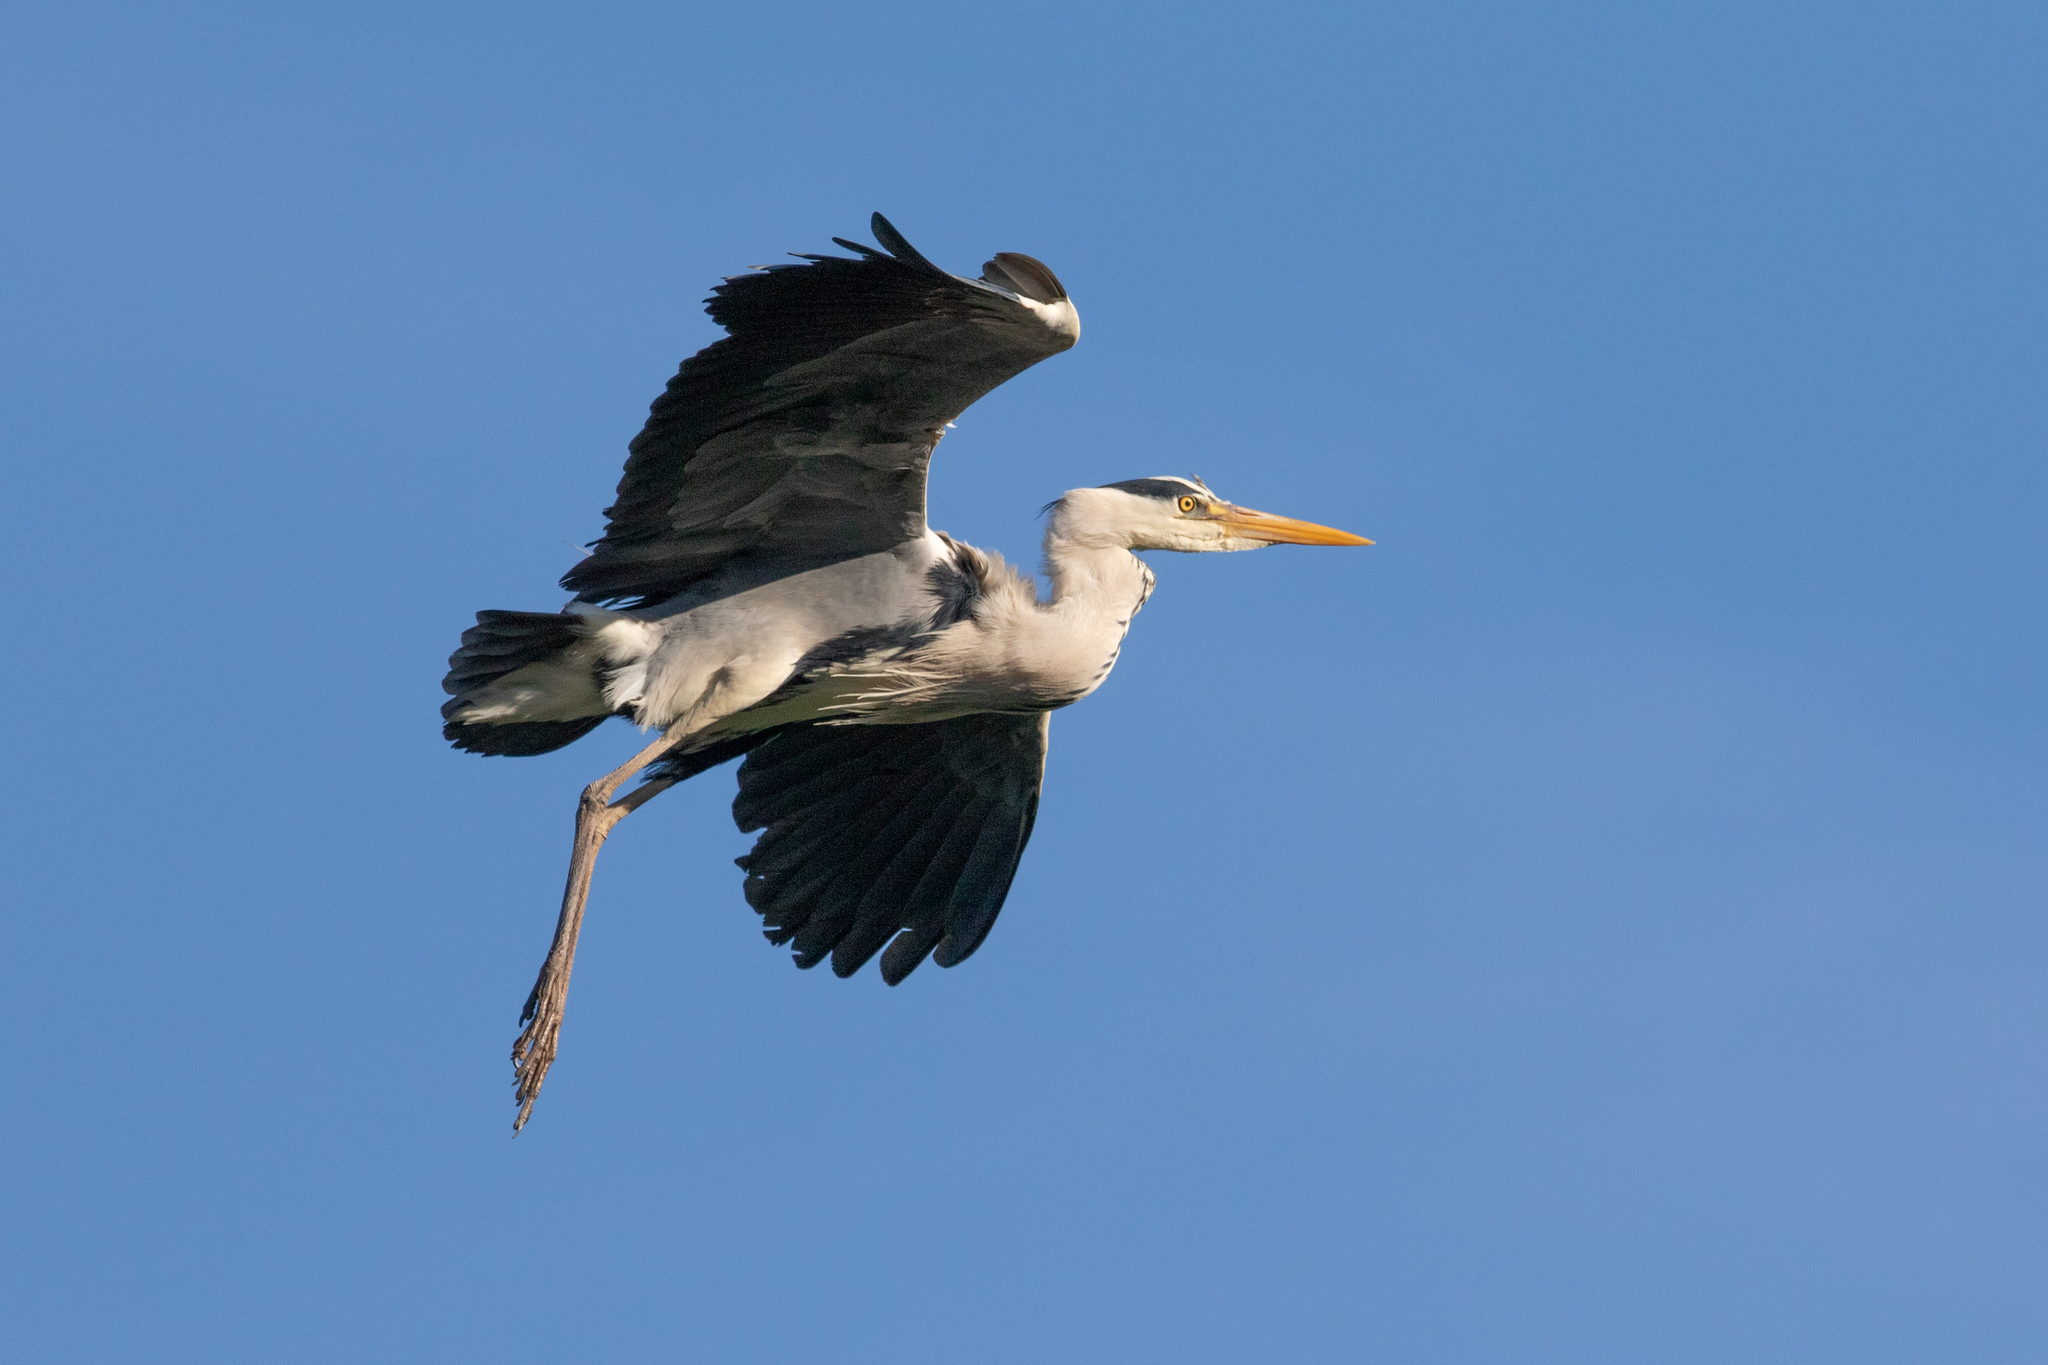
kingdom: Animalia
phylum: Chordata
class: Aves
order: Pelecaniformes
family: Ardeidae
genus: Ardea
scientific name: Ardea cinerea
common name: Grey heron
